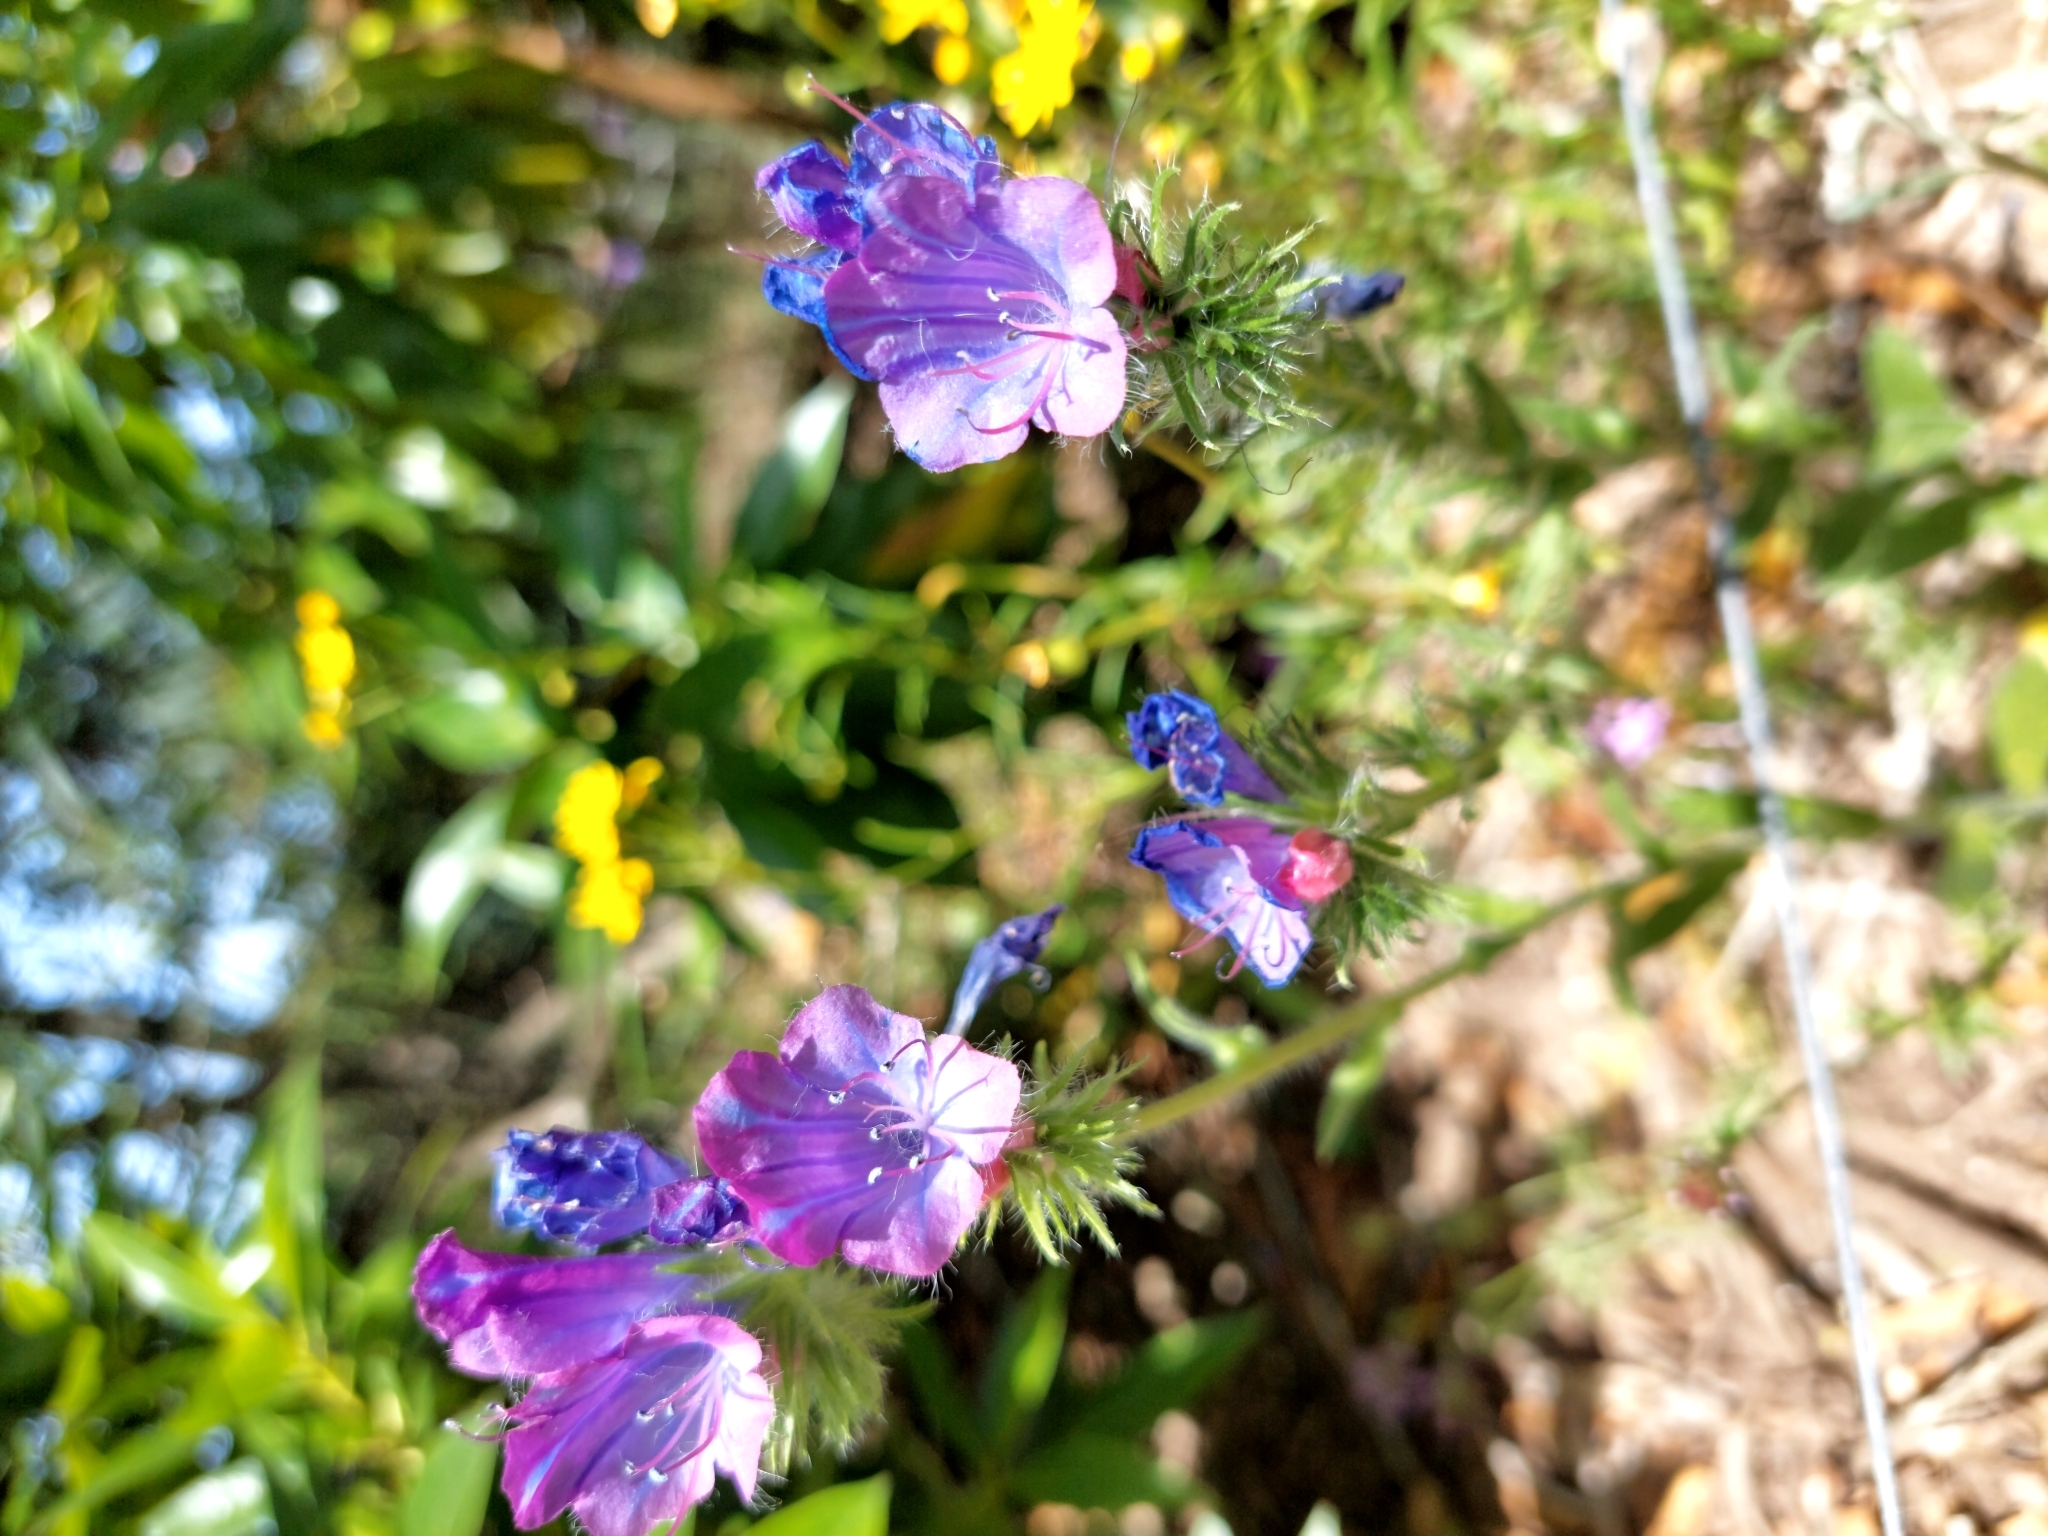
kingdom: Plantae
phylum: Tracheophyta
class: Magnoliopsida
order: Boraginales
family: Boraginaceae
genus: Echium
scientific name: Echium plantagineum
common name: Purple viper's-bugloss
